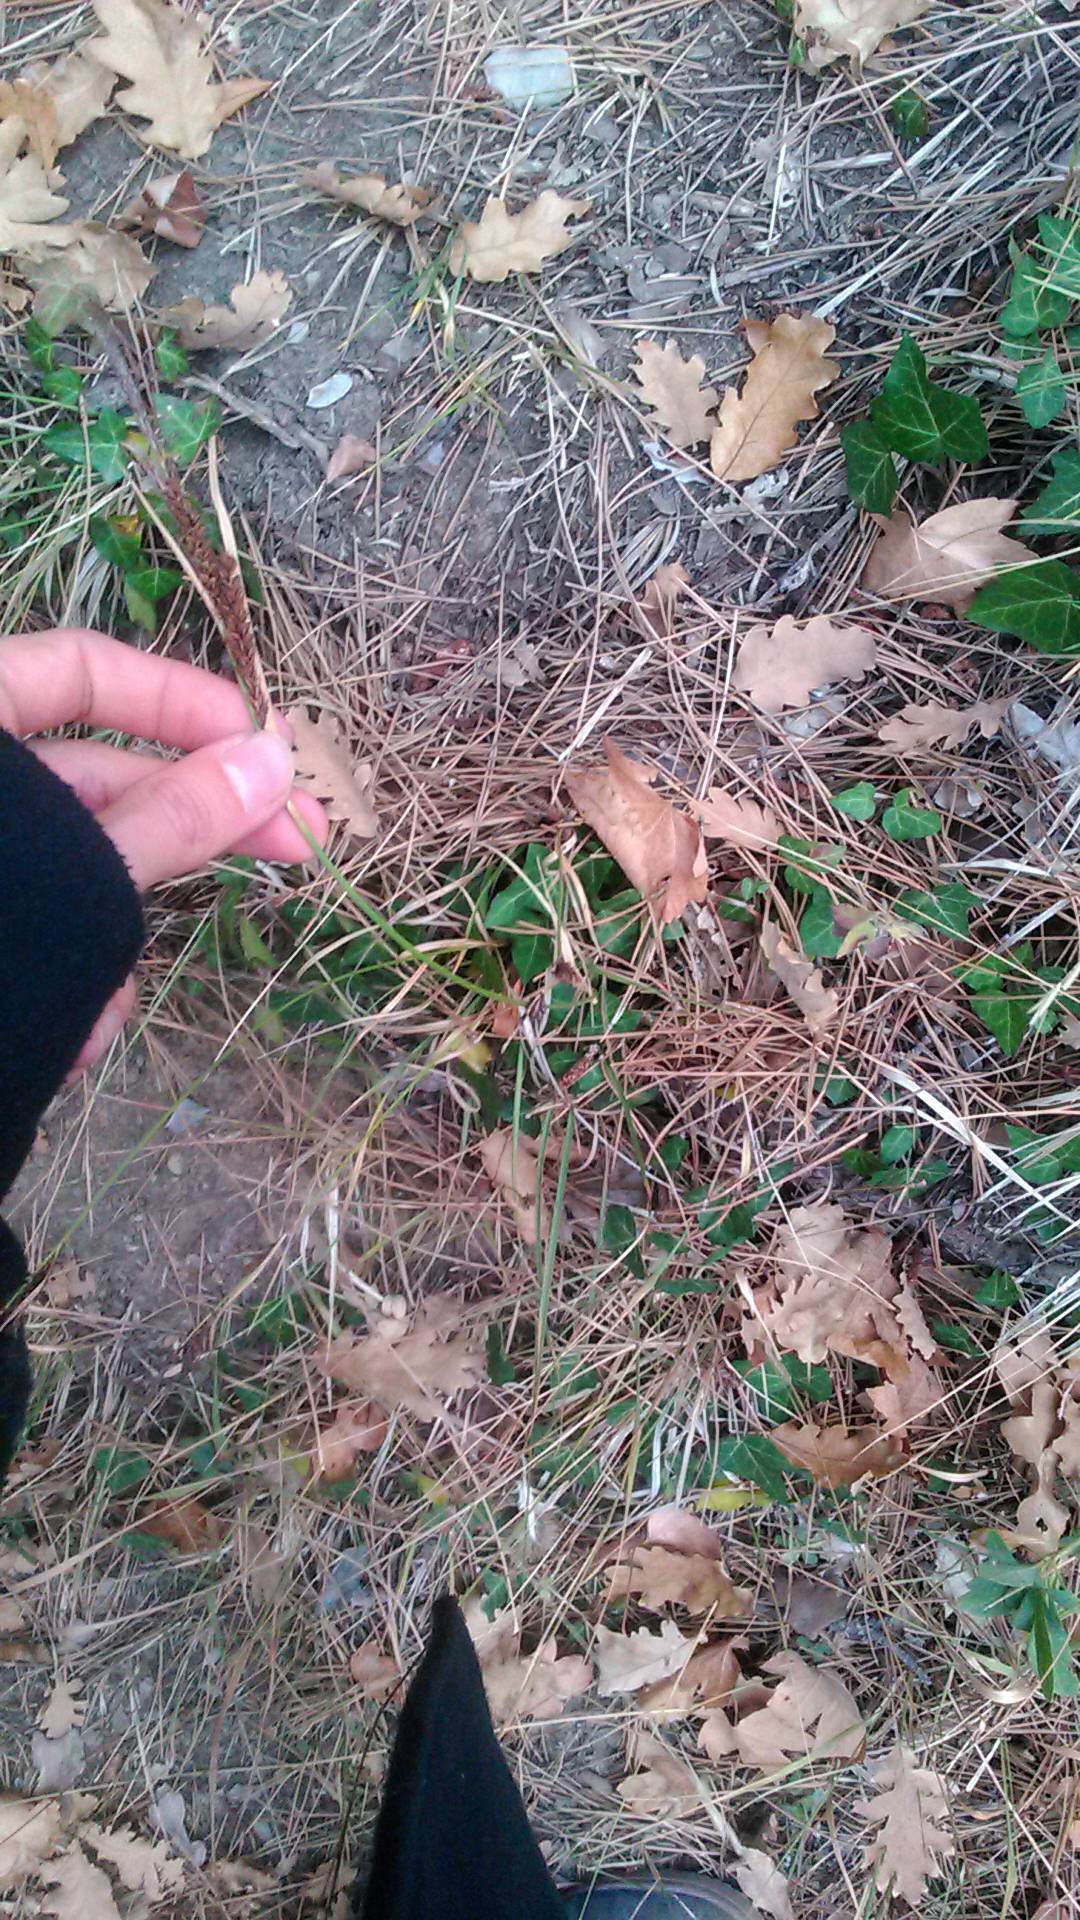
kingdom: Plantae
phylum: Tracheophyta
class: Liliopsida
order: Poales
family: Cyperaceae
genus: Carex
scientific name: Carex flacca
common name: Glaucous sedge
